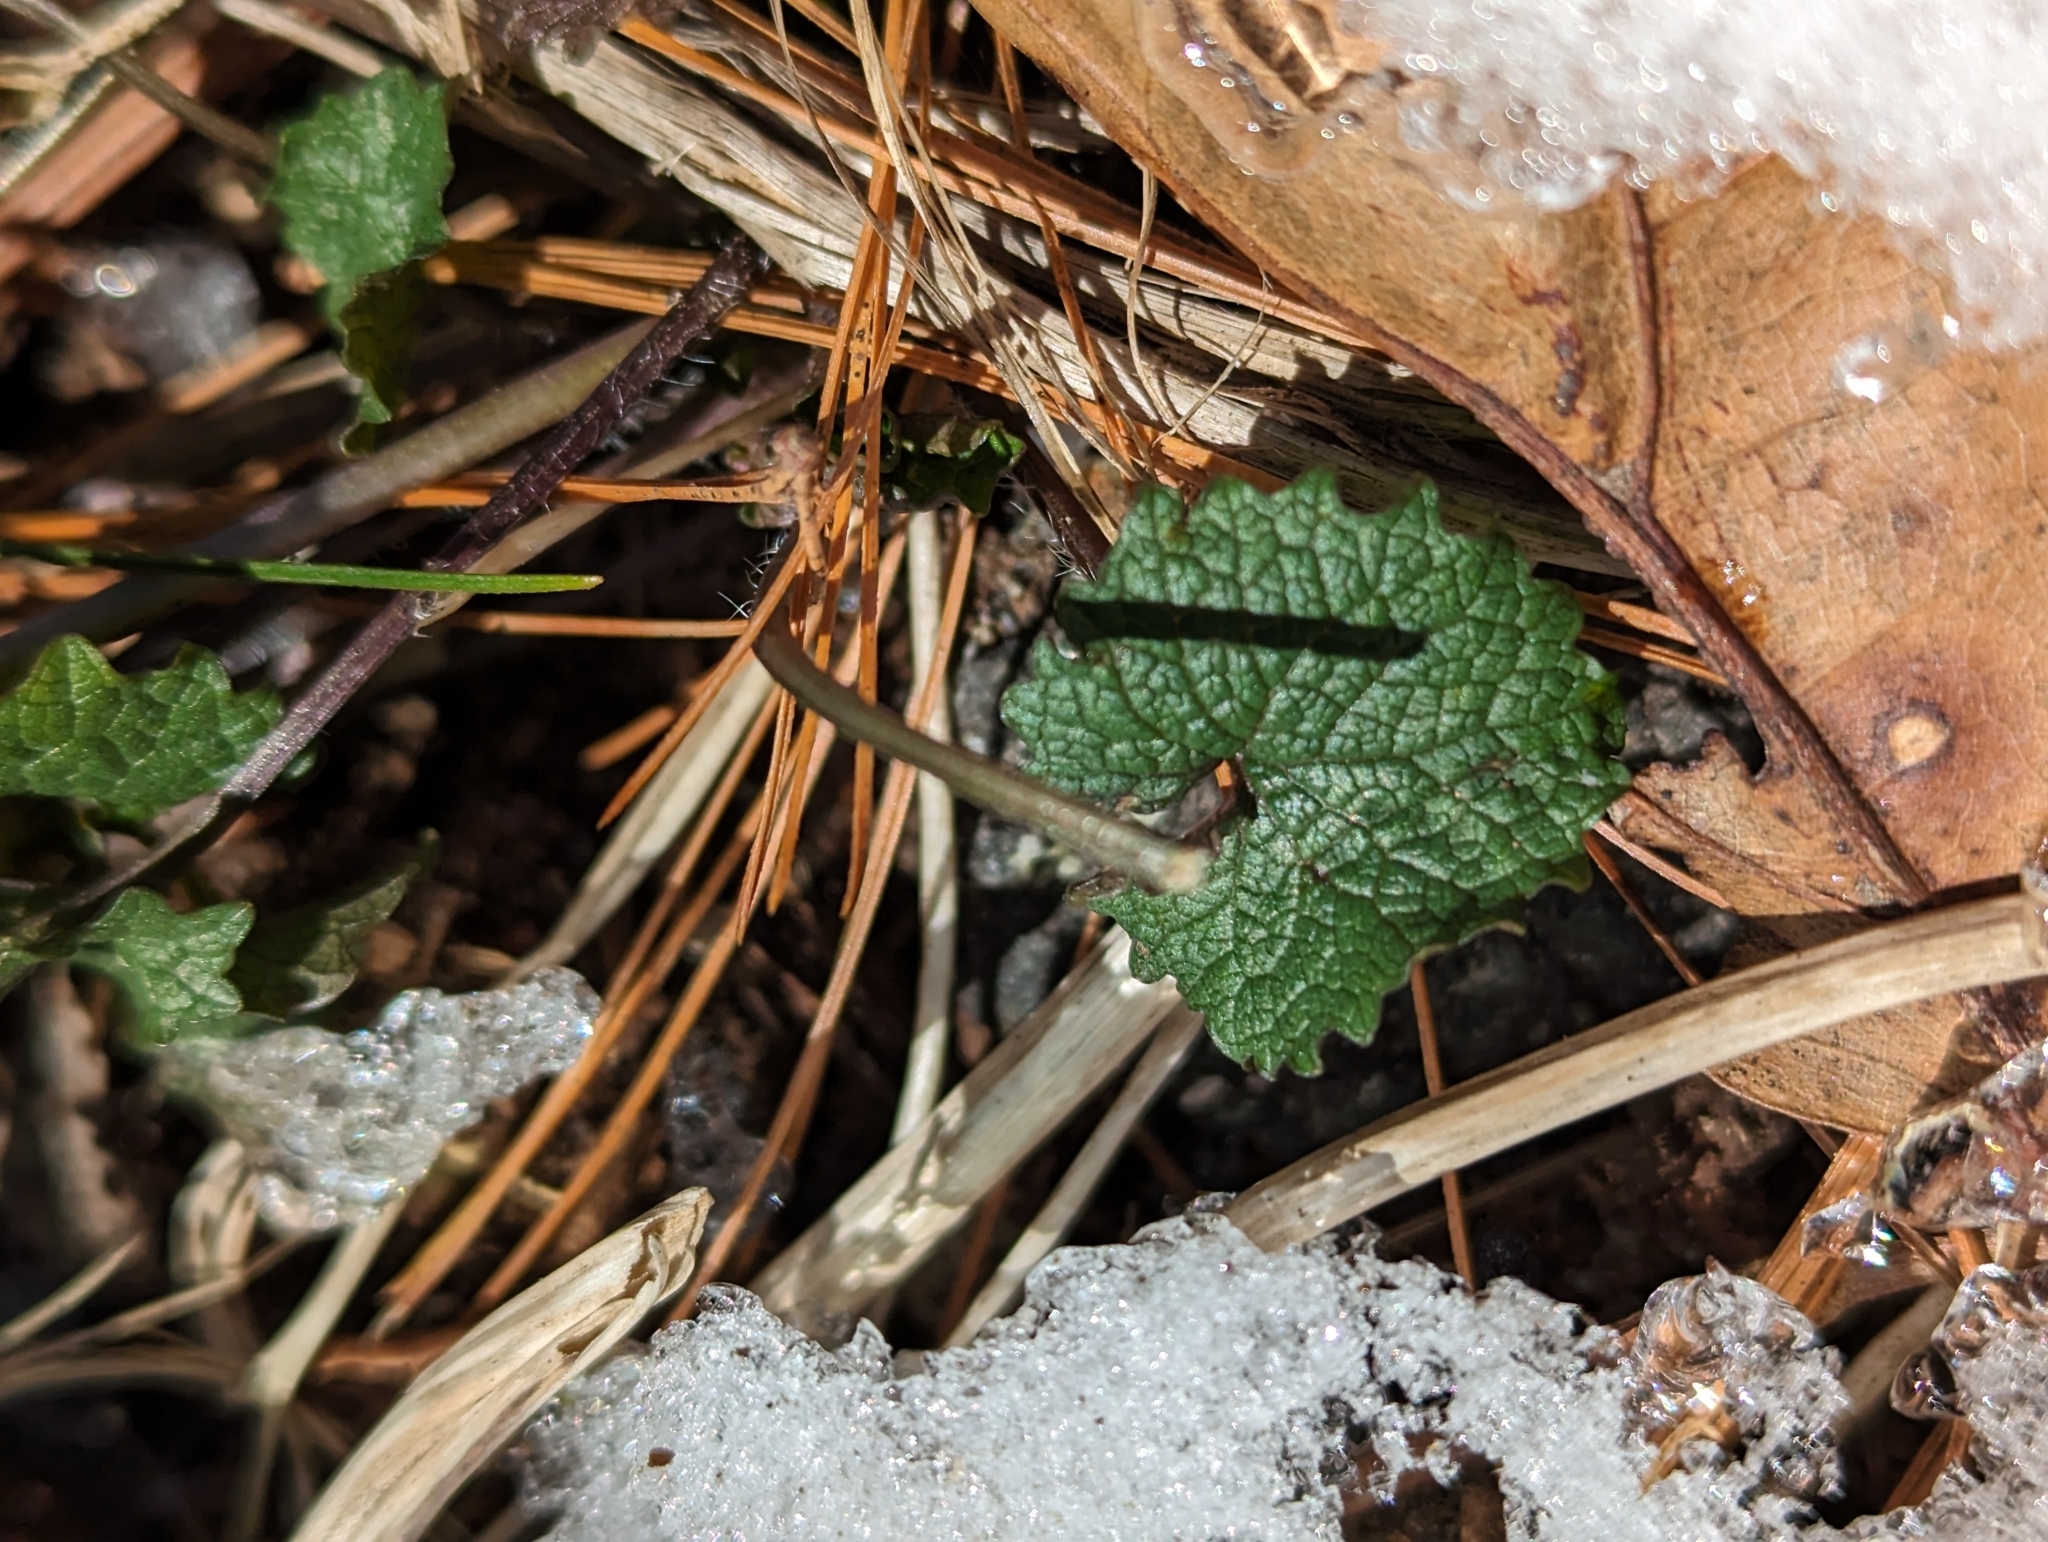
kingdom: Plantae
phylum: Tracheophyta
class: Magnoliopsida
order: Brassicales
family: Brassicaceae
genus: Alliaria
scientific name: Alliaria petiolata
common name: Garlic mustard
